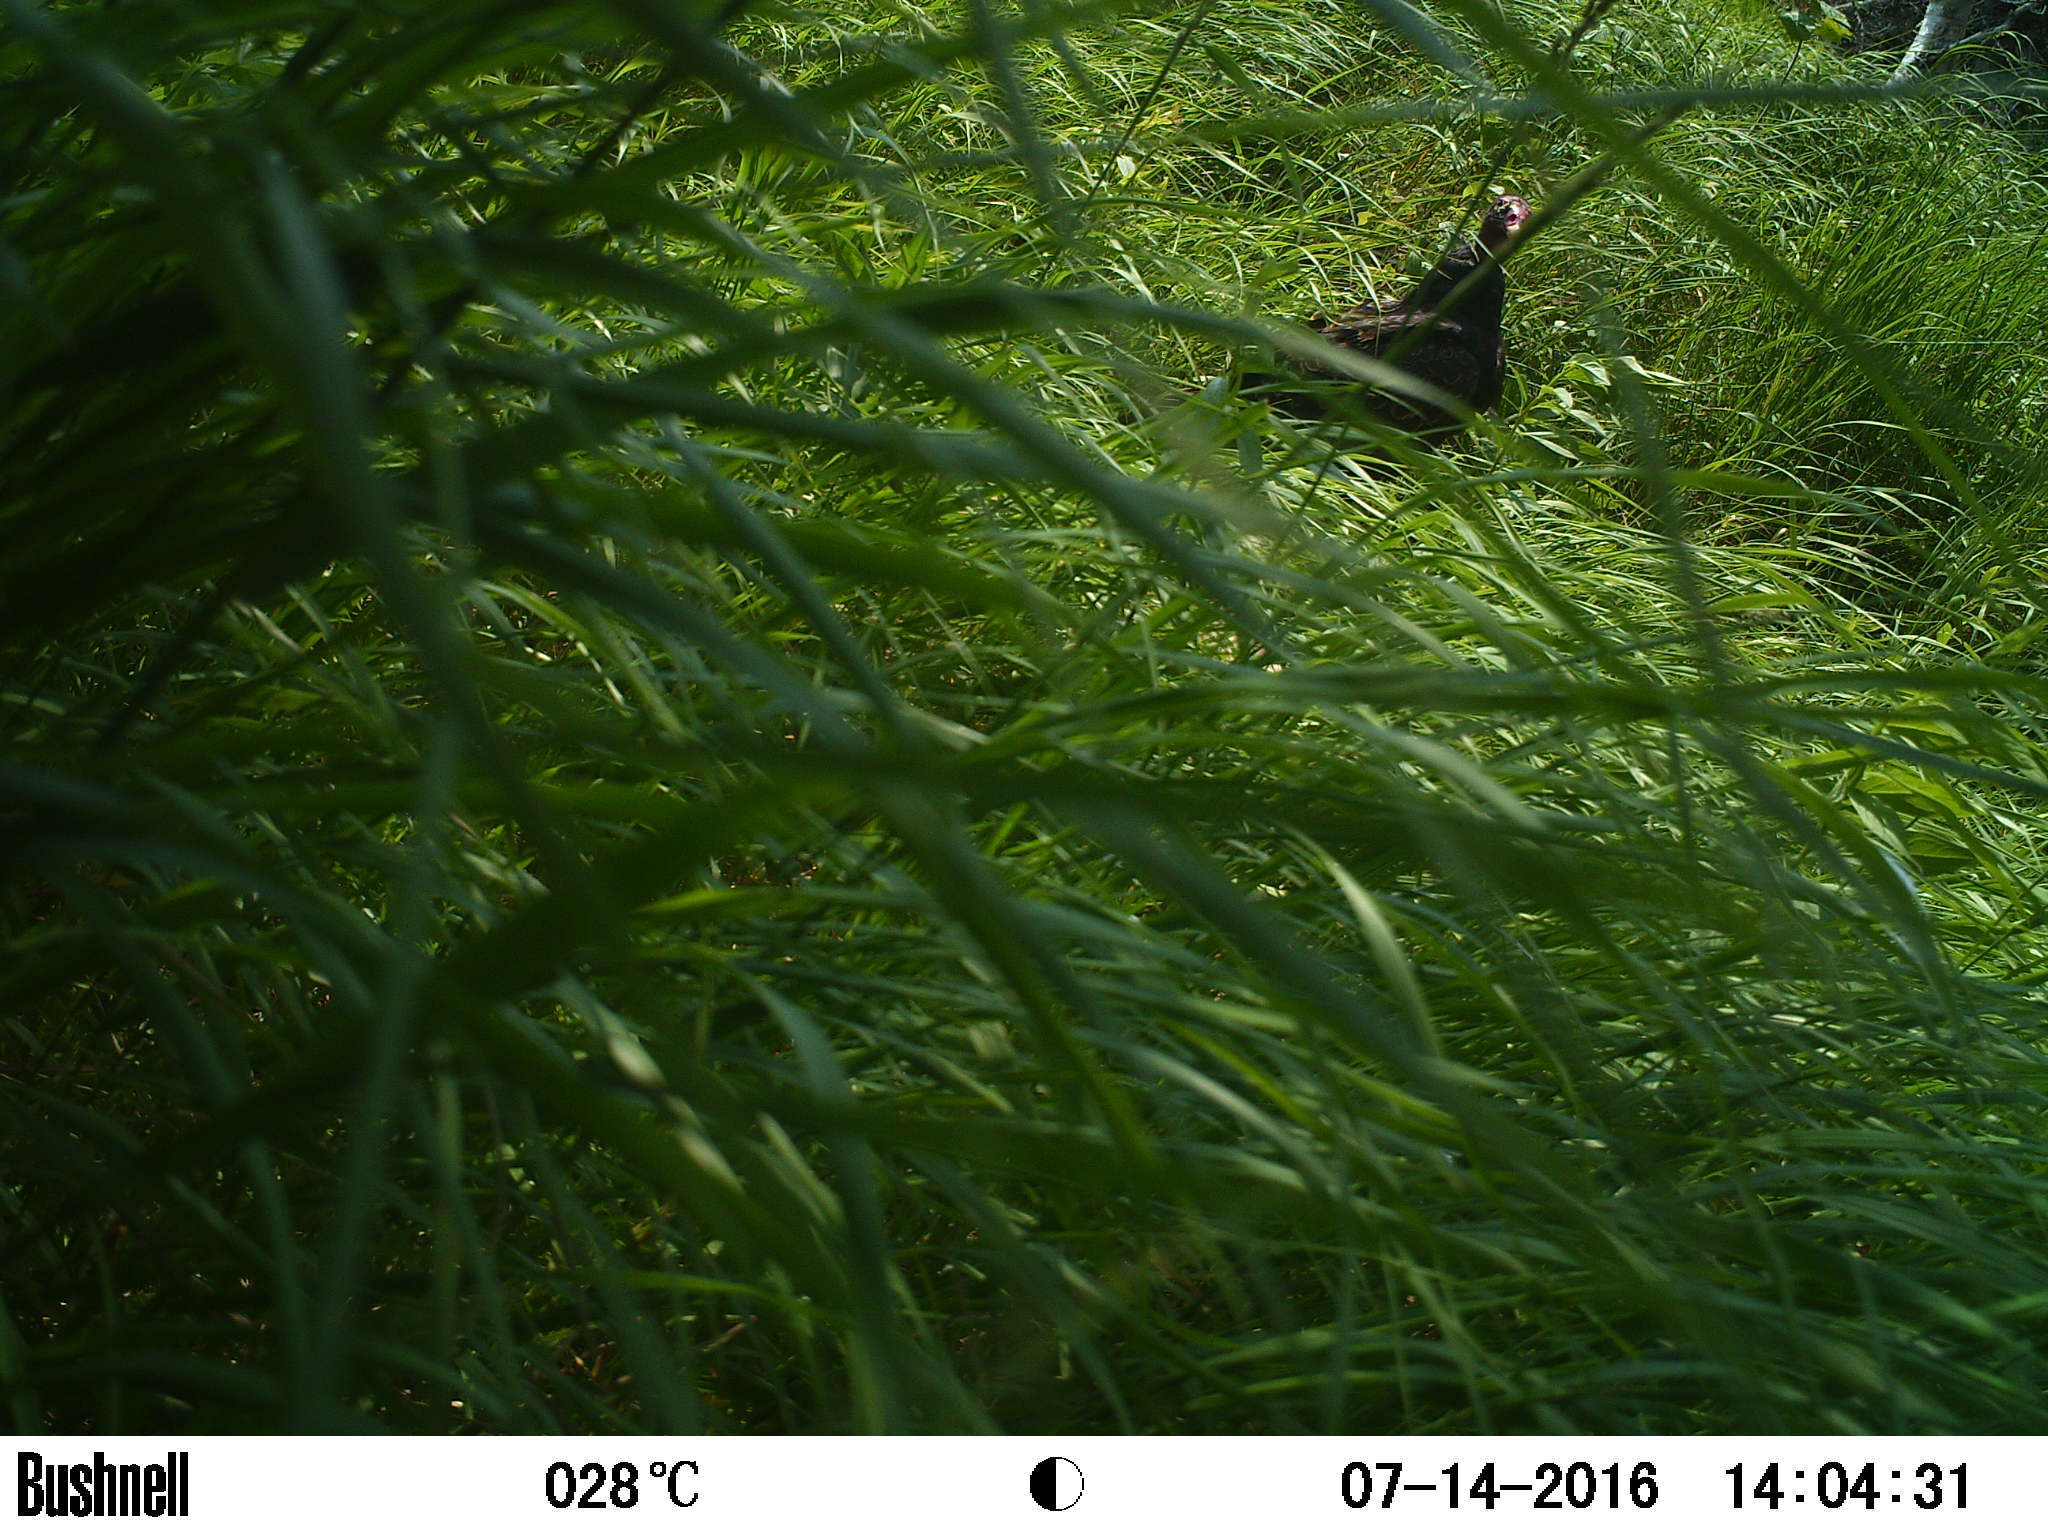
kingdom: Animalia
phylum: Chordata
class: Aves
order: Accipitriformes
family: Cathartidae
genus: Cathartes
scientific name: Cathartes aura
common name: Turkey vulture
